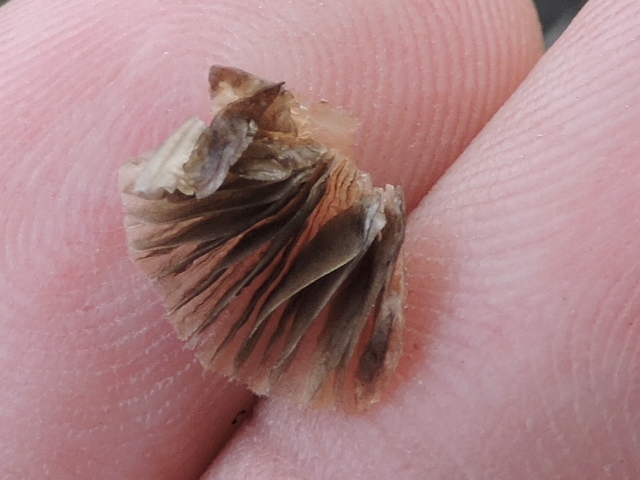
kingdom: Fungi
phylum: Basidiomycota
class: Agaricomycetes
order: Agaricales
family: Psathyrellaceae
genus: Coprinellus
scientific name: Coprinellus disseminatus
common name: Fairies' bonnets
